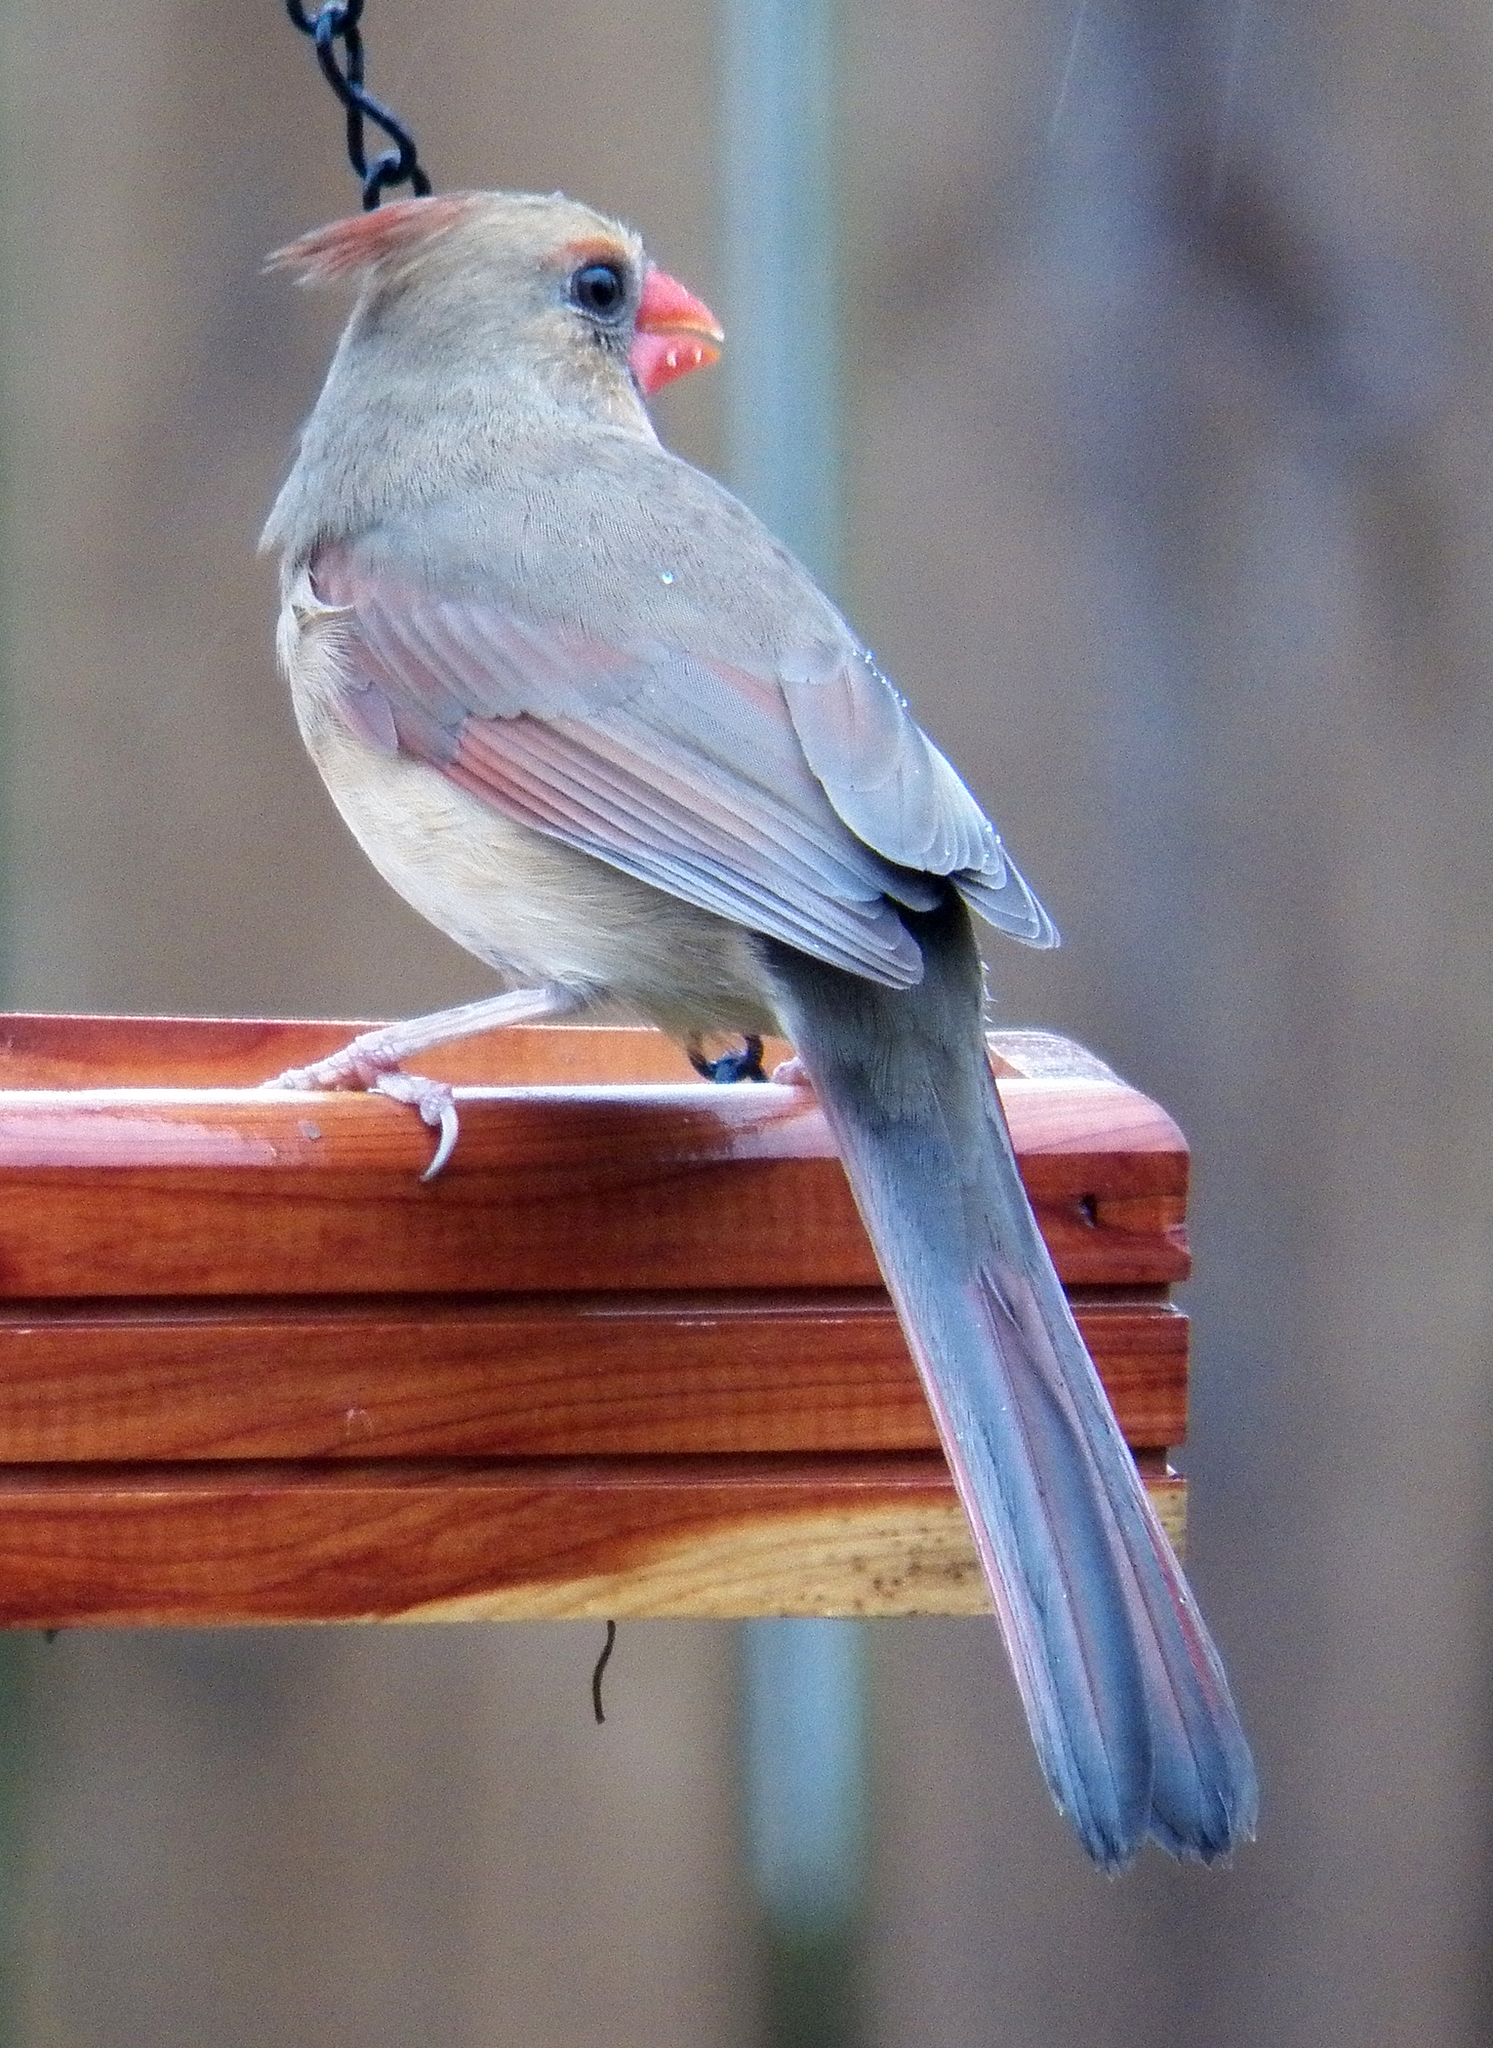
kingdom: Animalia
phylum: Chordata
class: Aves
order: Passeriformes
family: Cardinalidae
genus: Cardinalis
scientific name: Cardinalis cardinalis
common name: Northern cardinal
